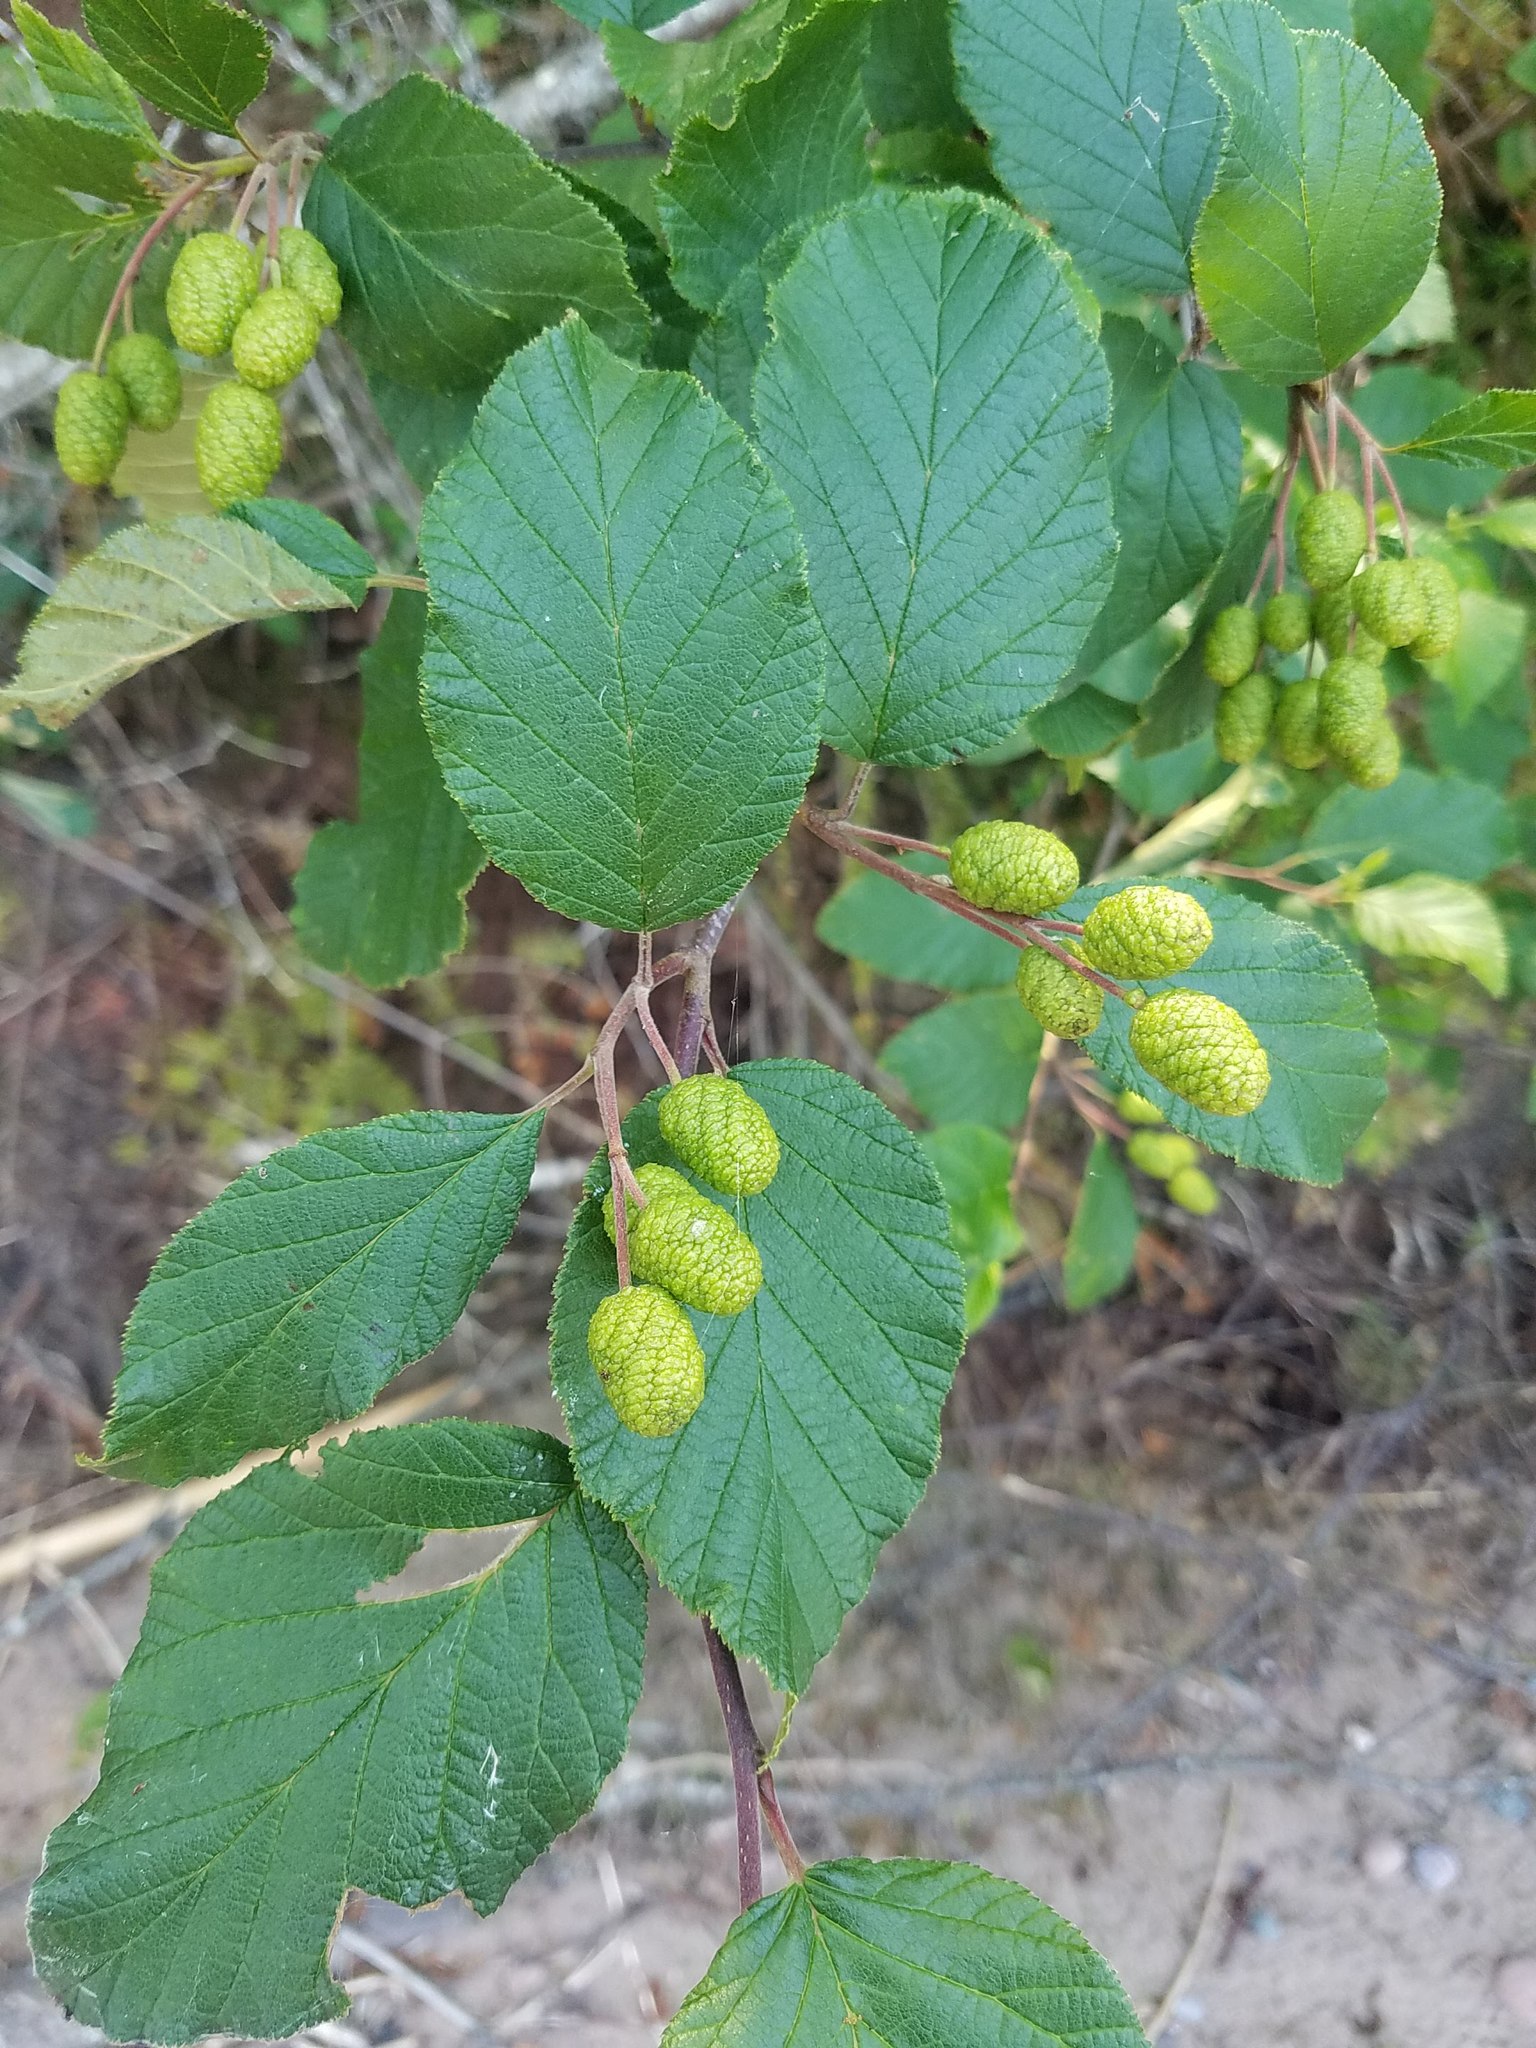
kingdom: Plantae
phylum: Tracheophyta
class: Magnoliopsida
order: Fagales
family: Betulaceae
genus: Alnus
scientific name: Alnus alnobetula
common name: Green alder
